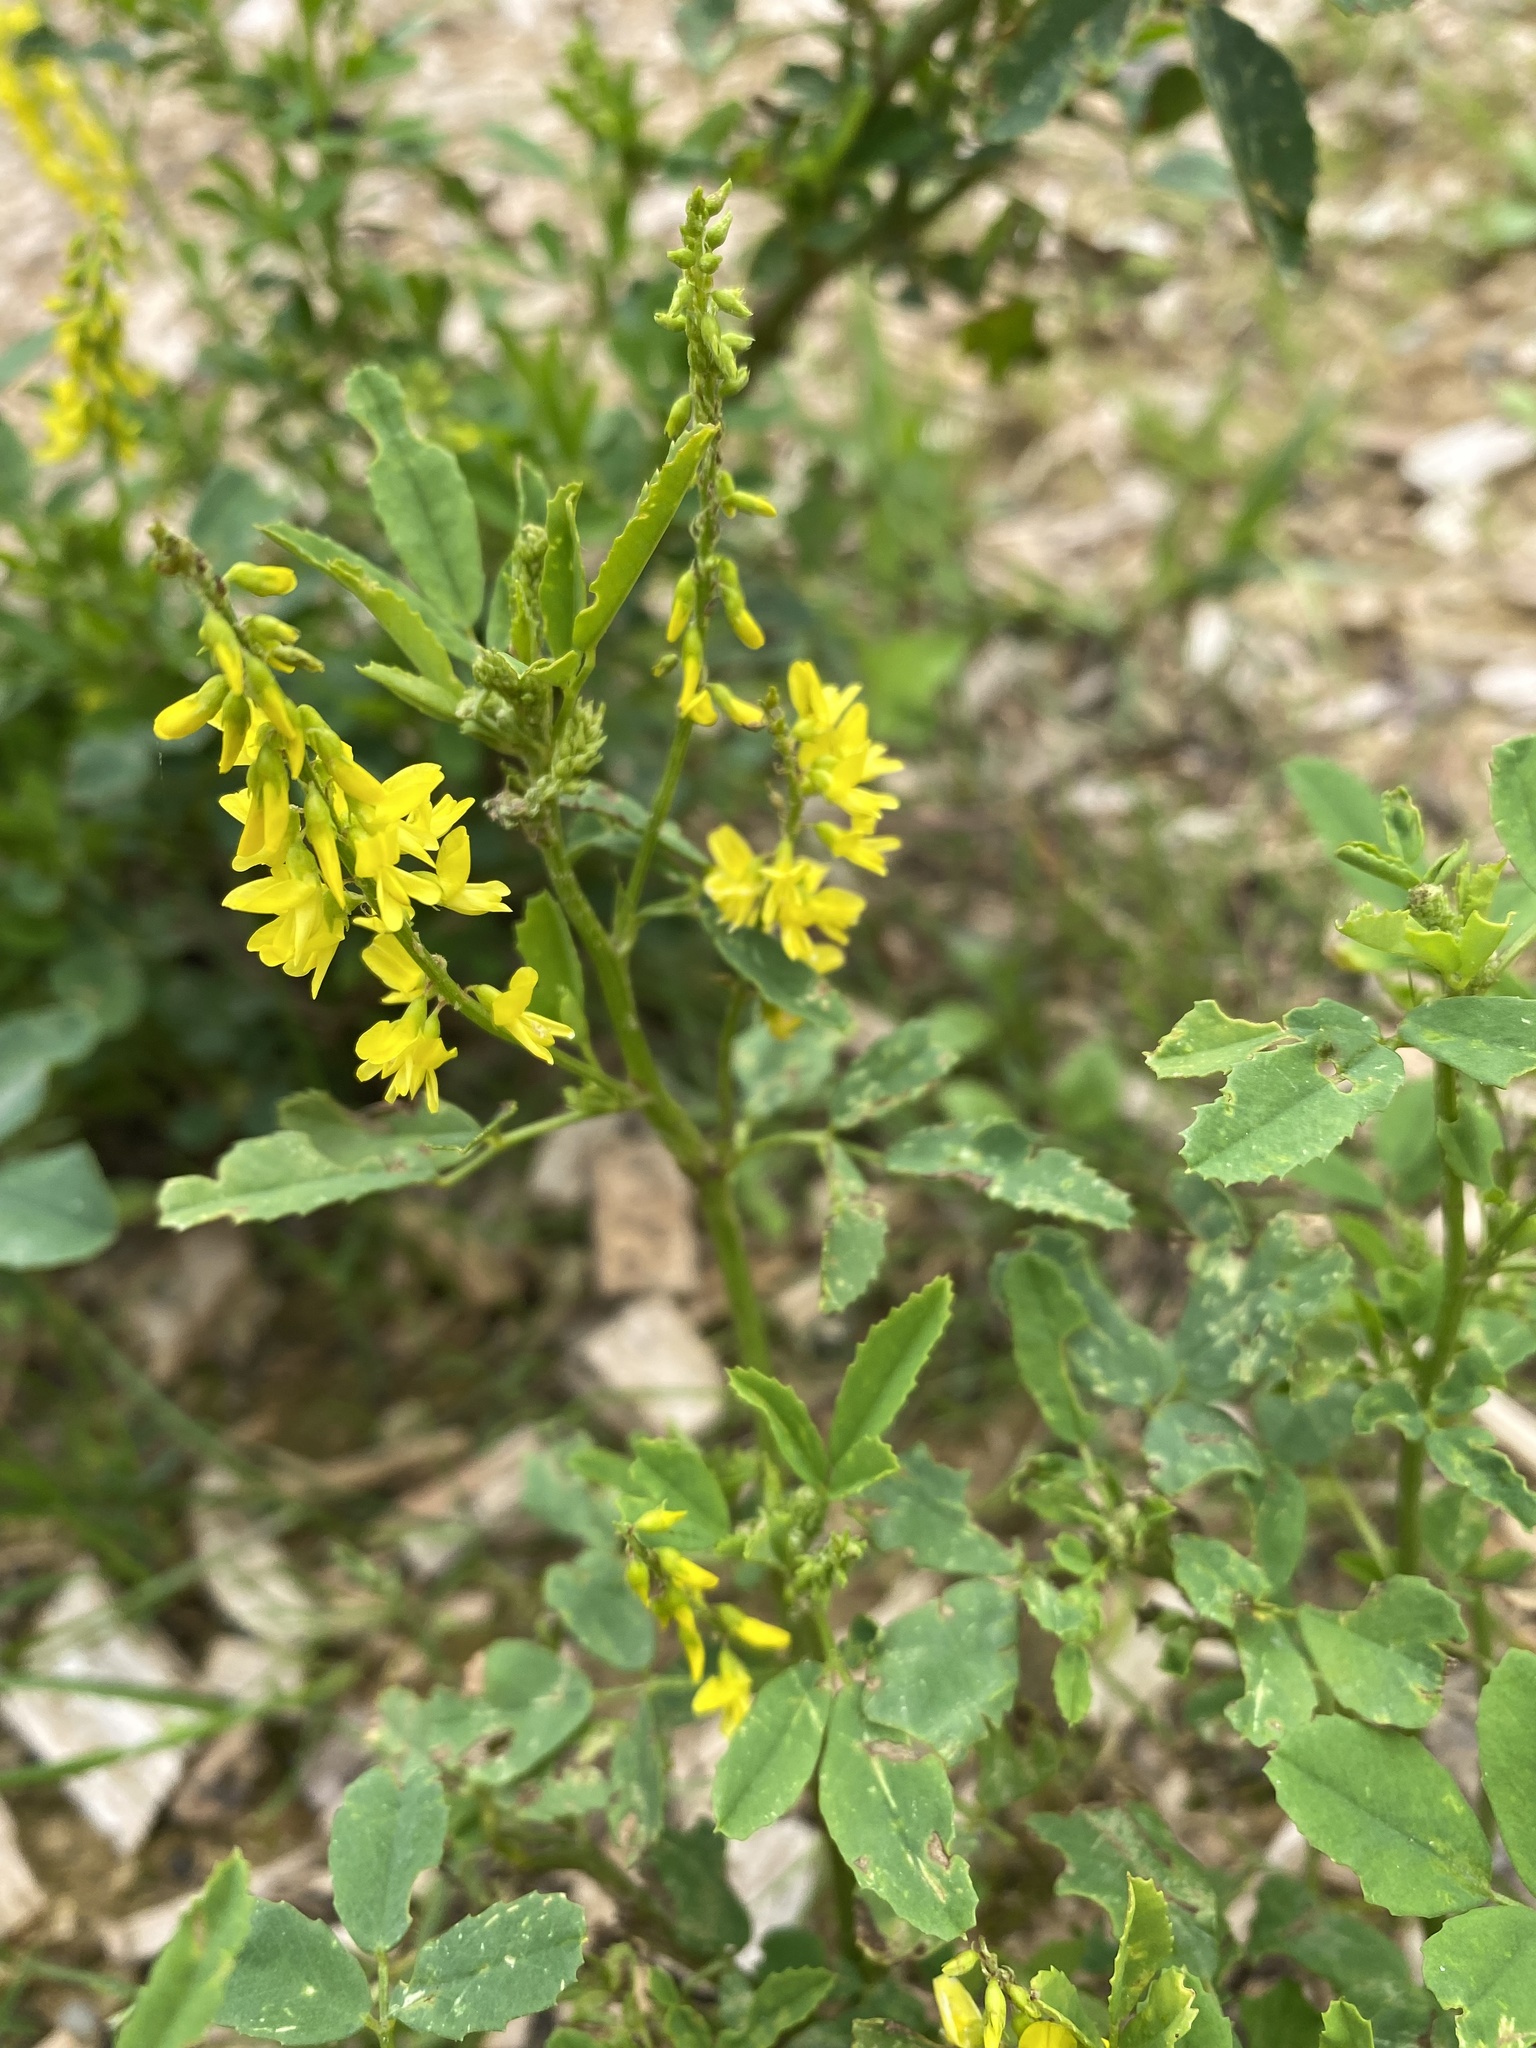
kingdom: Plantae
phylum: Tracheophyta
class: Magnoliopsida
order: Fabales
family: Fabaceae
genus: Melilotus
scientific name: Melilotus officinalis
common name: Sweetclover
